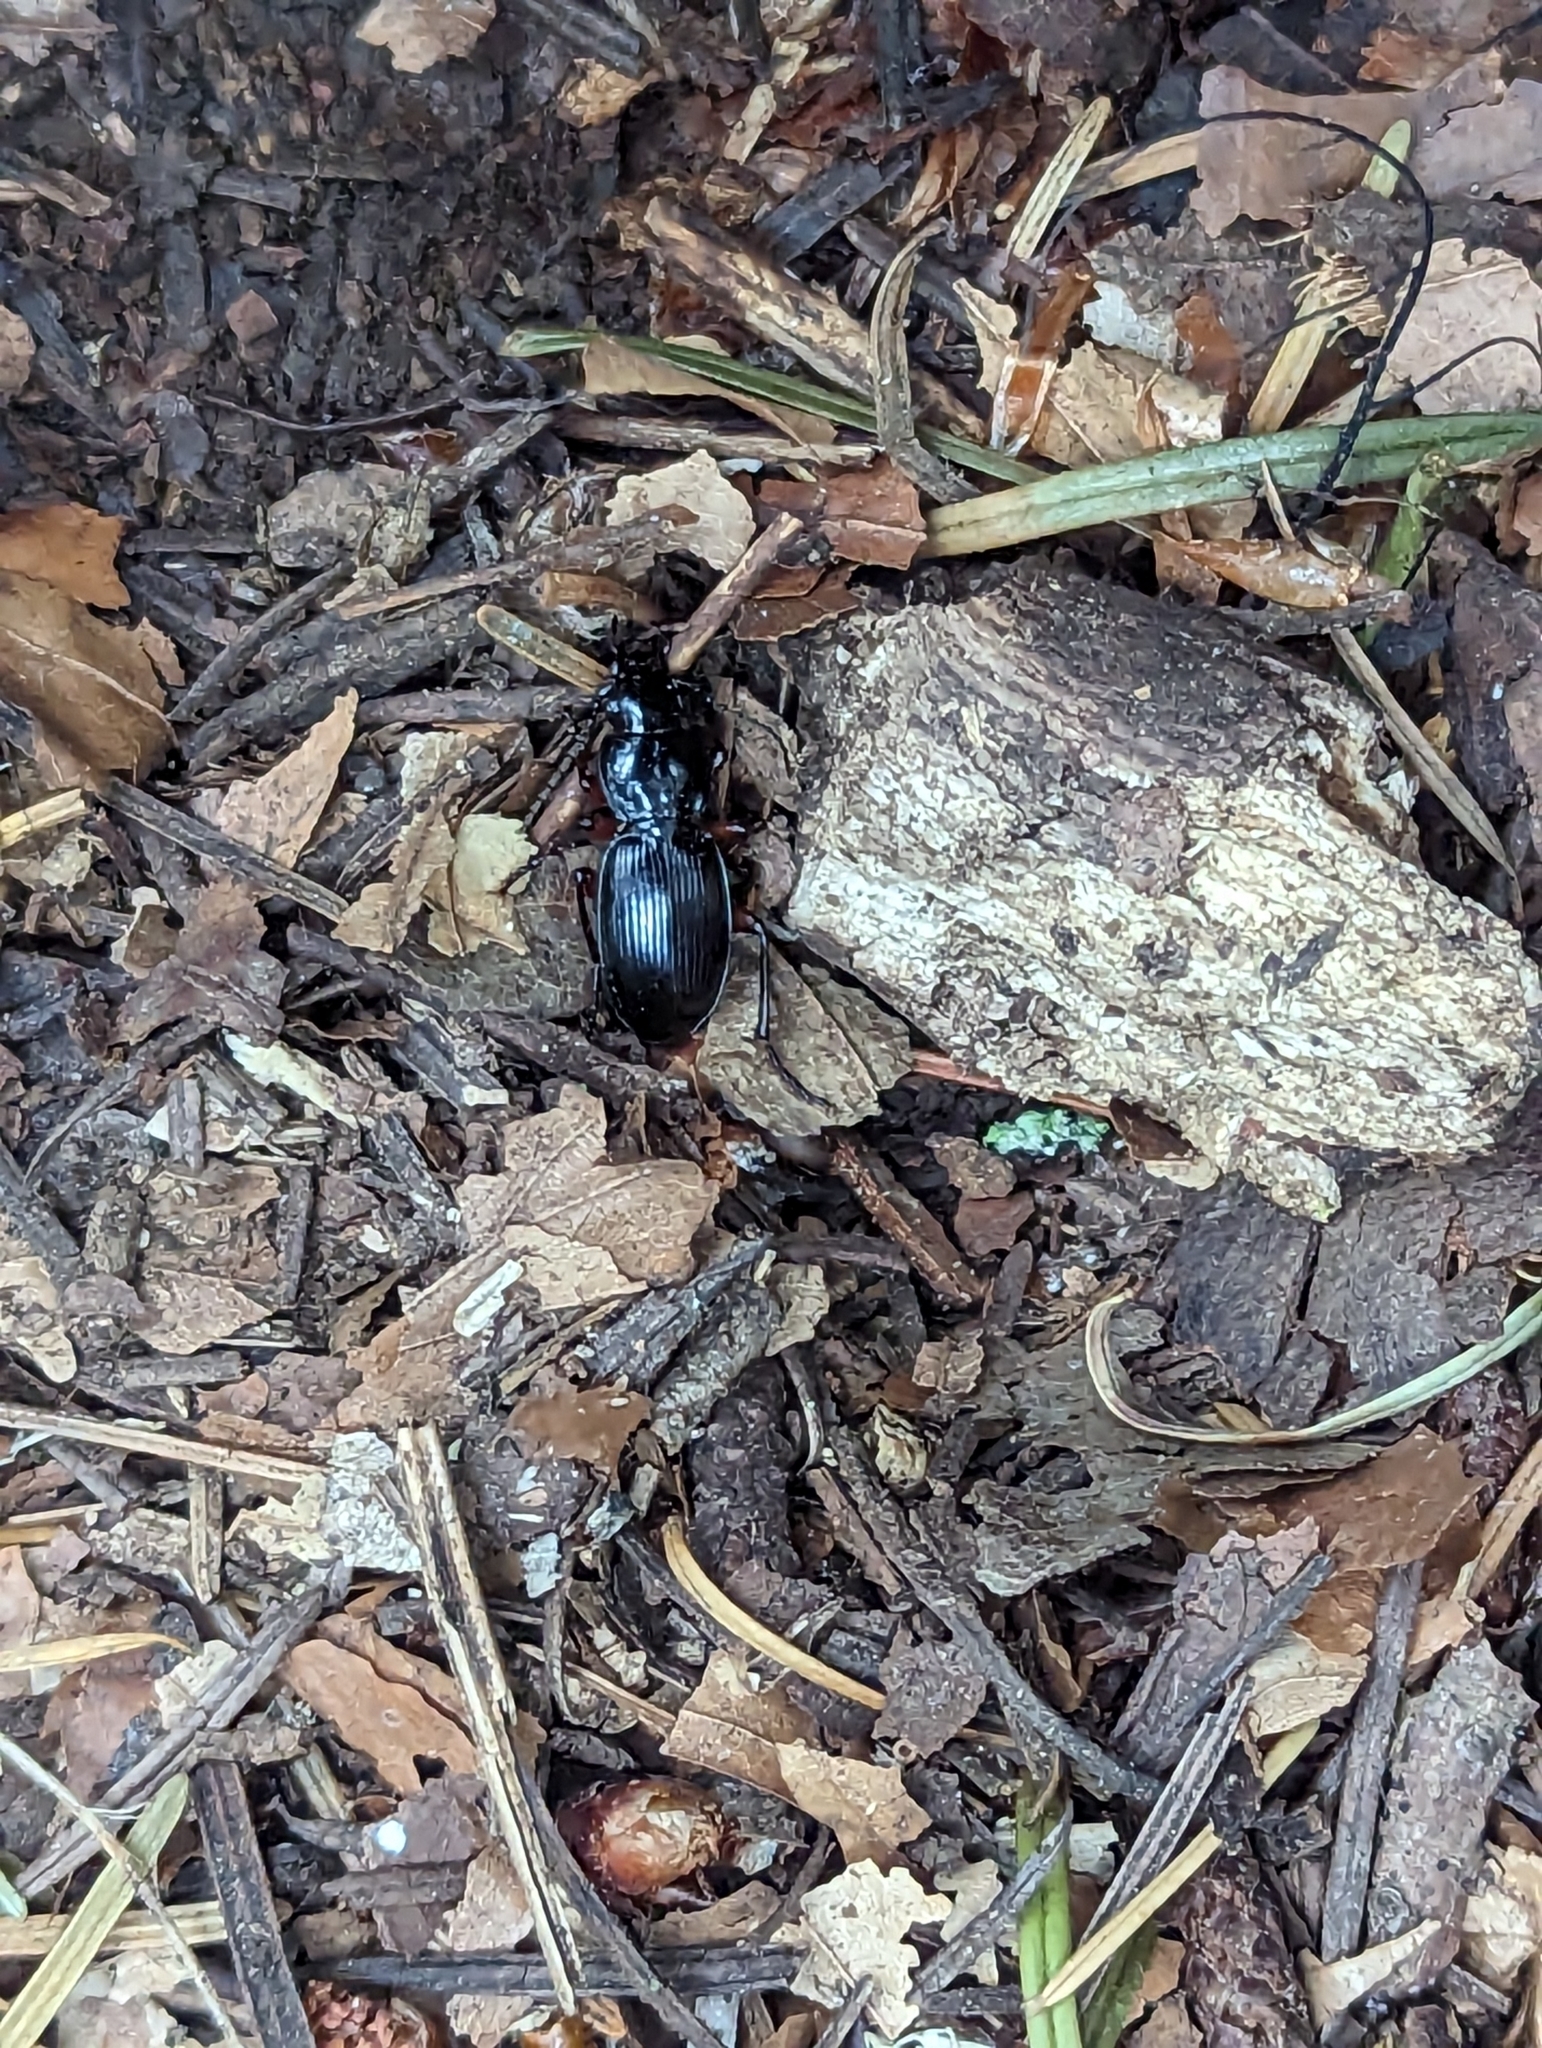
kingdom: Animalia
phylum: Arthropoda
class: Insecta
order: Coleoptera
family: Carabidae
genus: Pterostichus
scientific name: Pterostichus madidus
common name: Black clock
